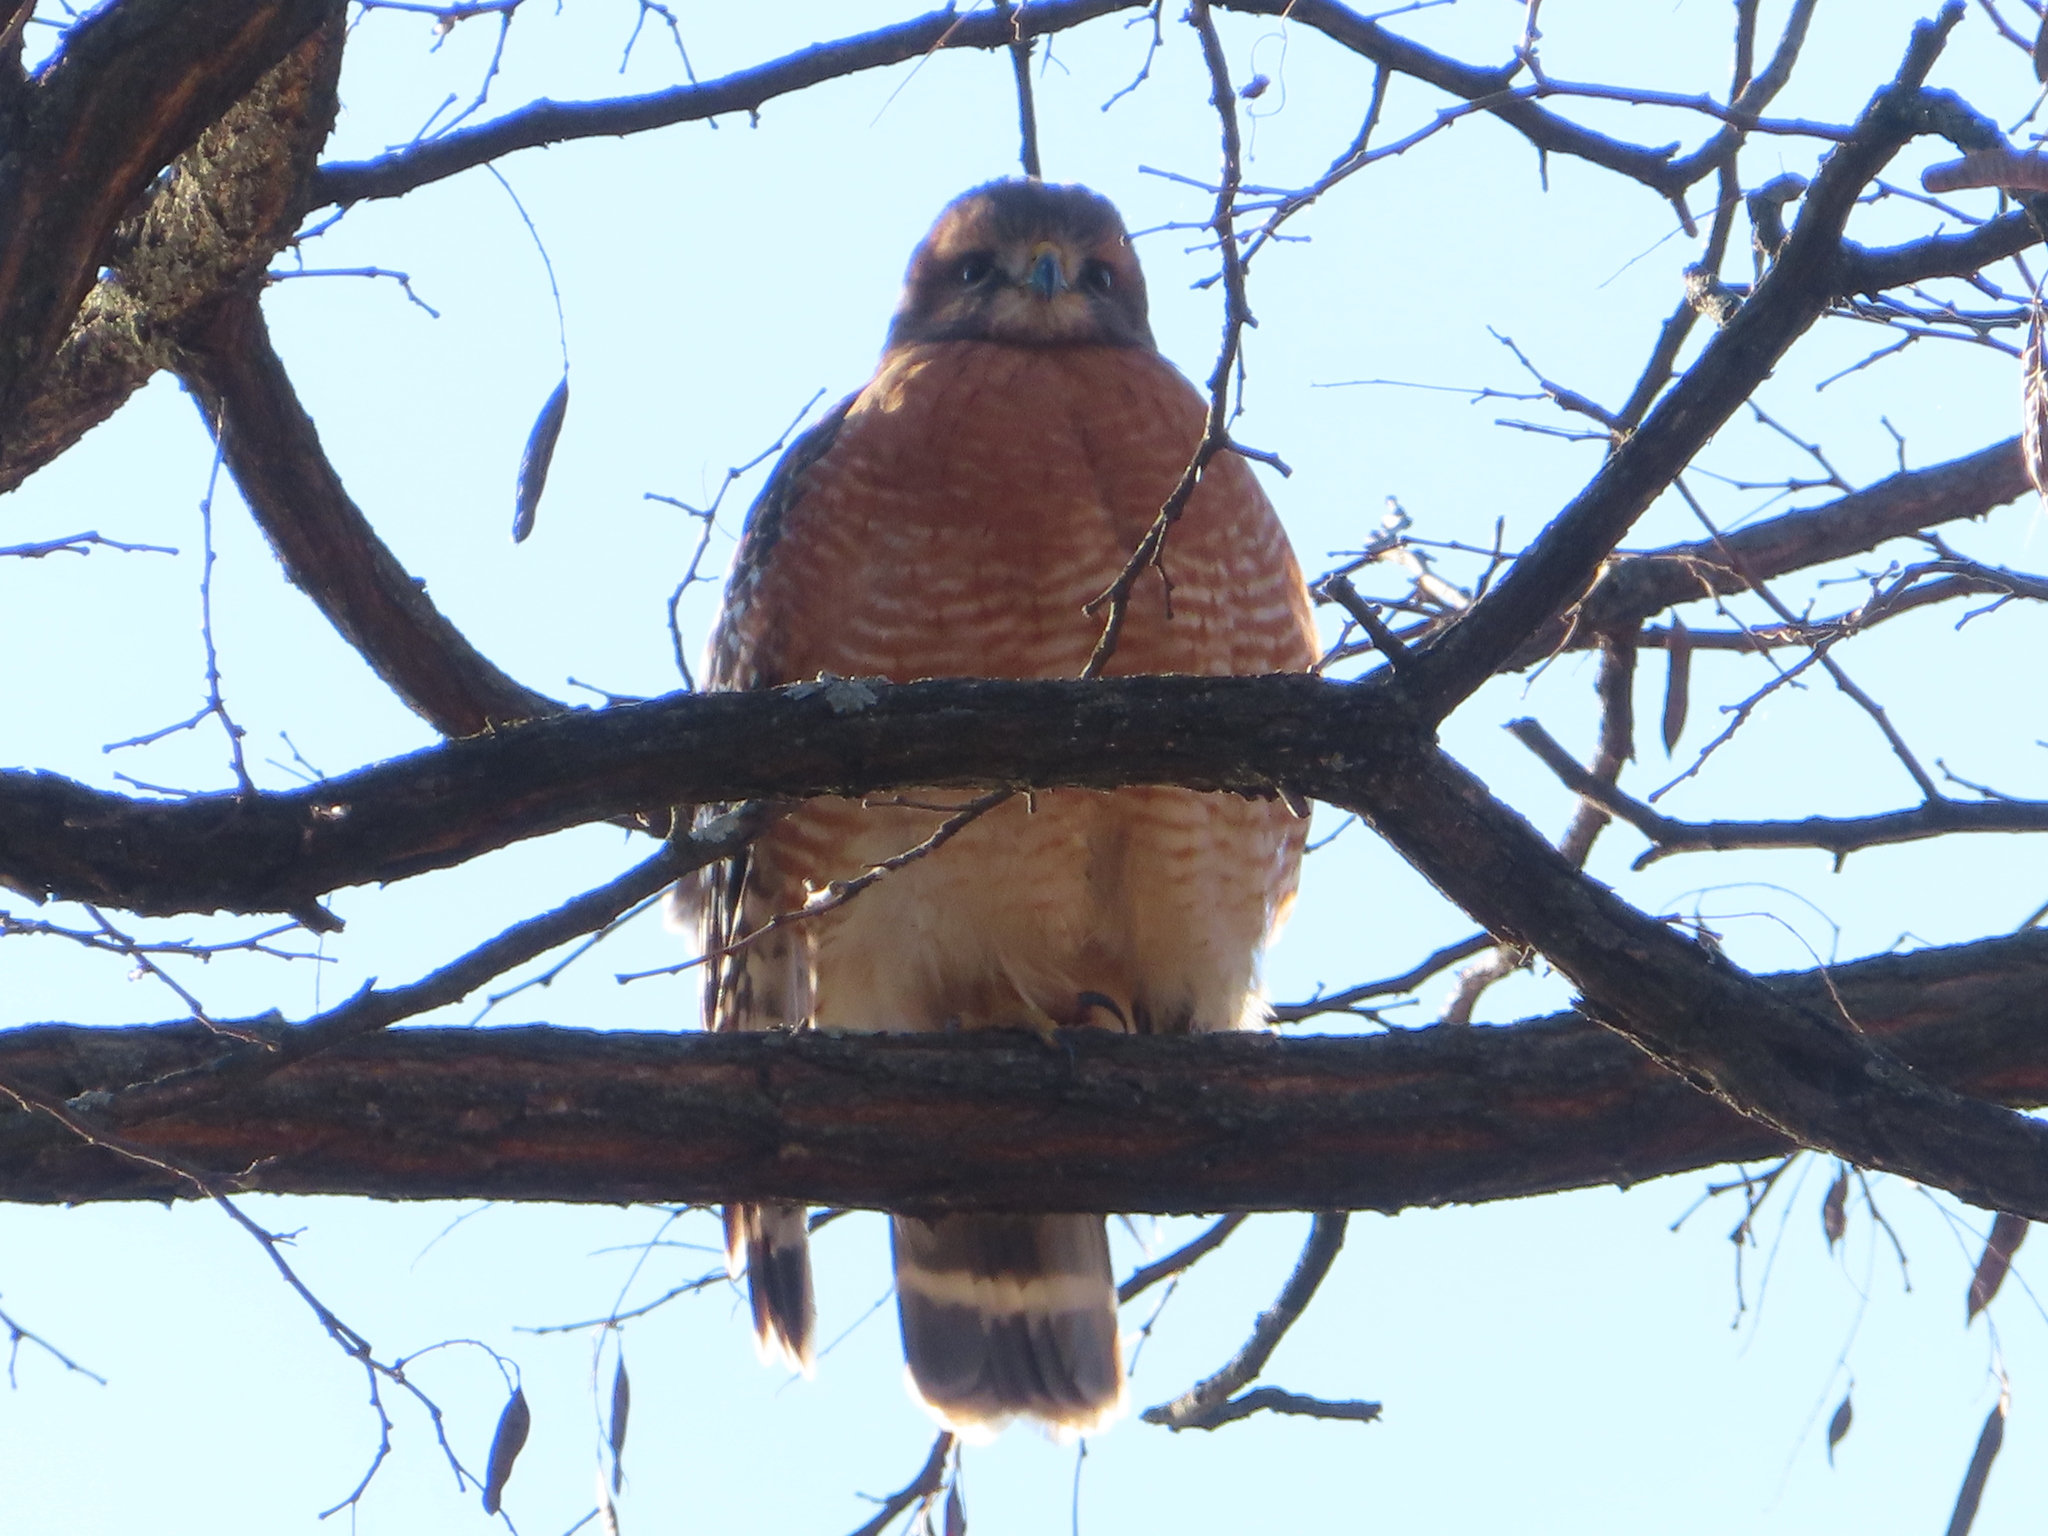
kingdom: Animalia
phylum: Chordata
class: Aves
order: Accipitriformes
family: Accipitridae
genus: Buteo
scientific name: Buteo lineatus
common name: Red-shouldered hawk
